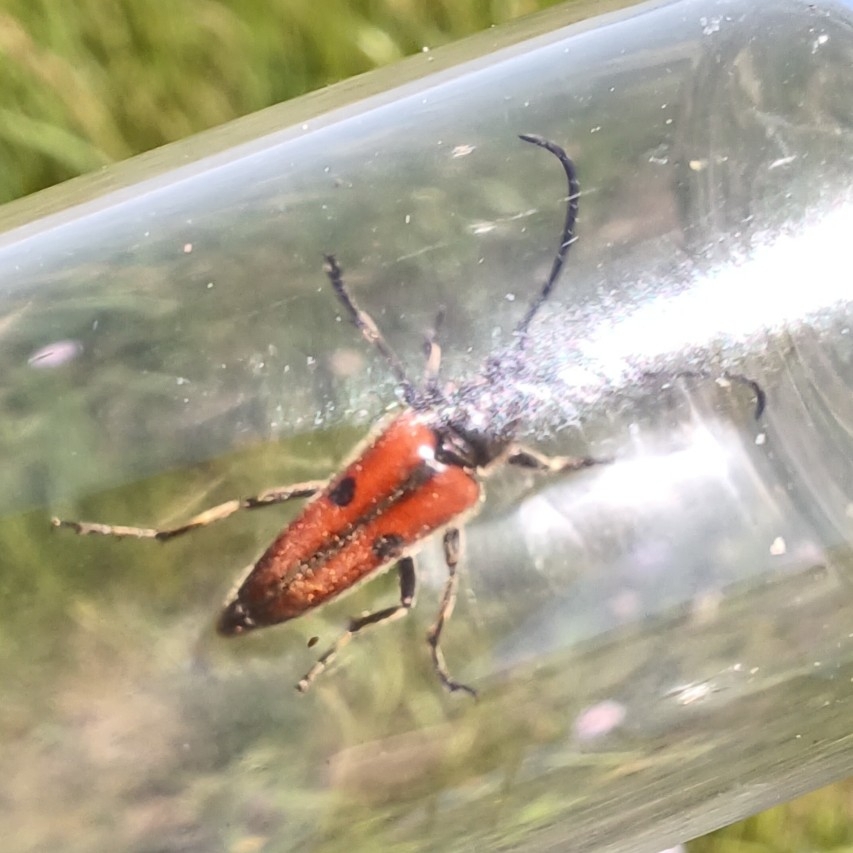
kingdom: Animalia
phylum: Arthropoda
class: Insecta
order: Coleoptera
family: Cerambycidae
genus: Vadonia
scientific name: Vadonia unipunctata
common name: Long-horned beetle
